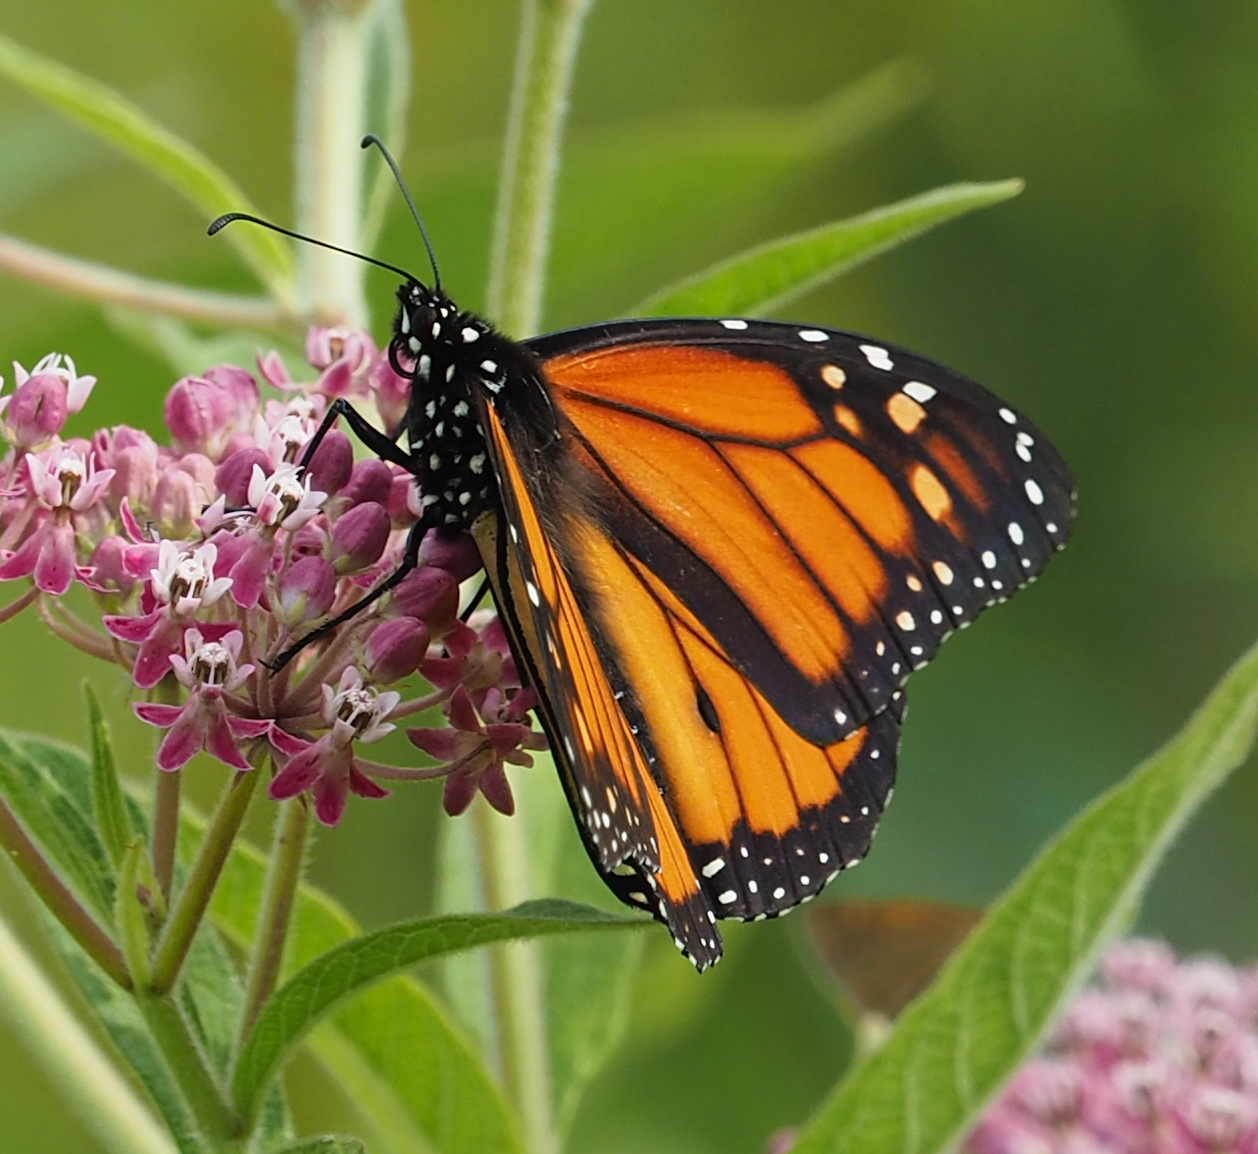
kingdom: Animalia
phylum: Arthropoda
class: Insecta
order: Lepidoptera
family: Nymphalidae
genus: Danaus
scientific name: Danaus plexippus
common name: Monarch
